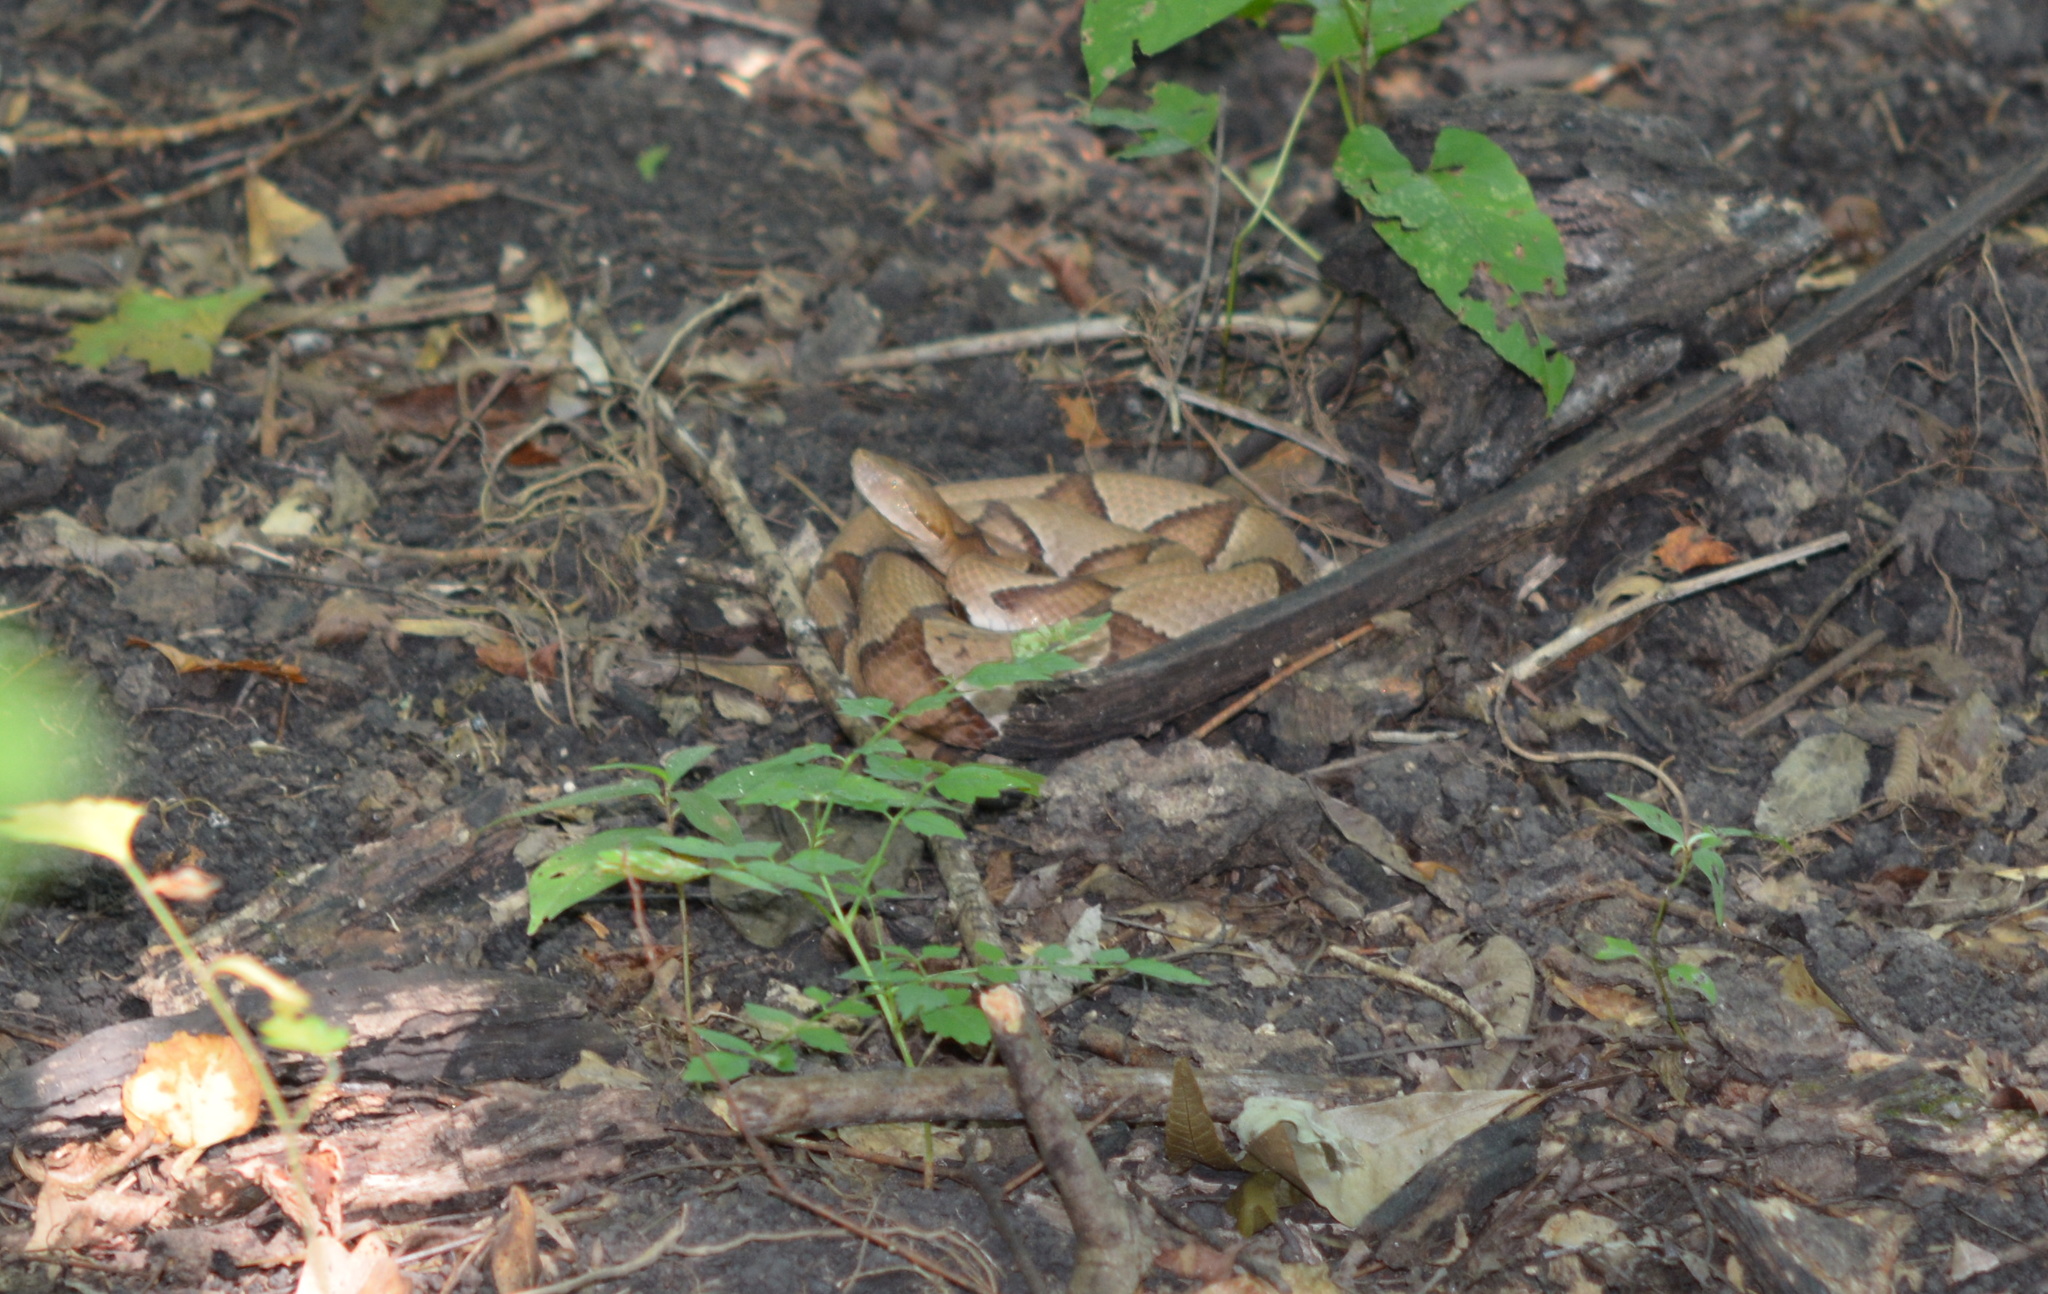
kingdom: Animalia
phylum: Chordata
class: Squamata
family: Viperidae
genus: Agkistrodon
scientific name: Agkistrodon contortrix
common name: Northern copperhead
